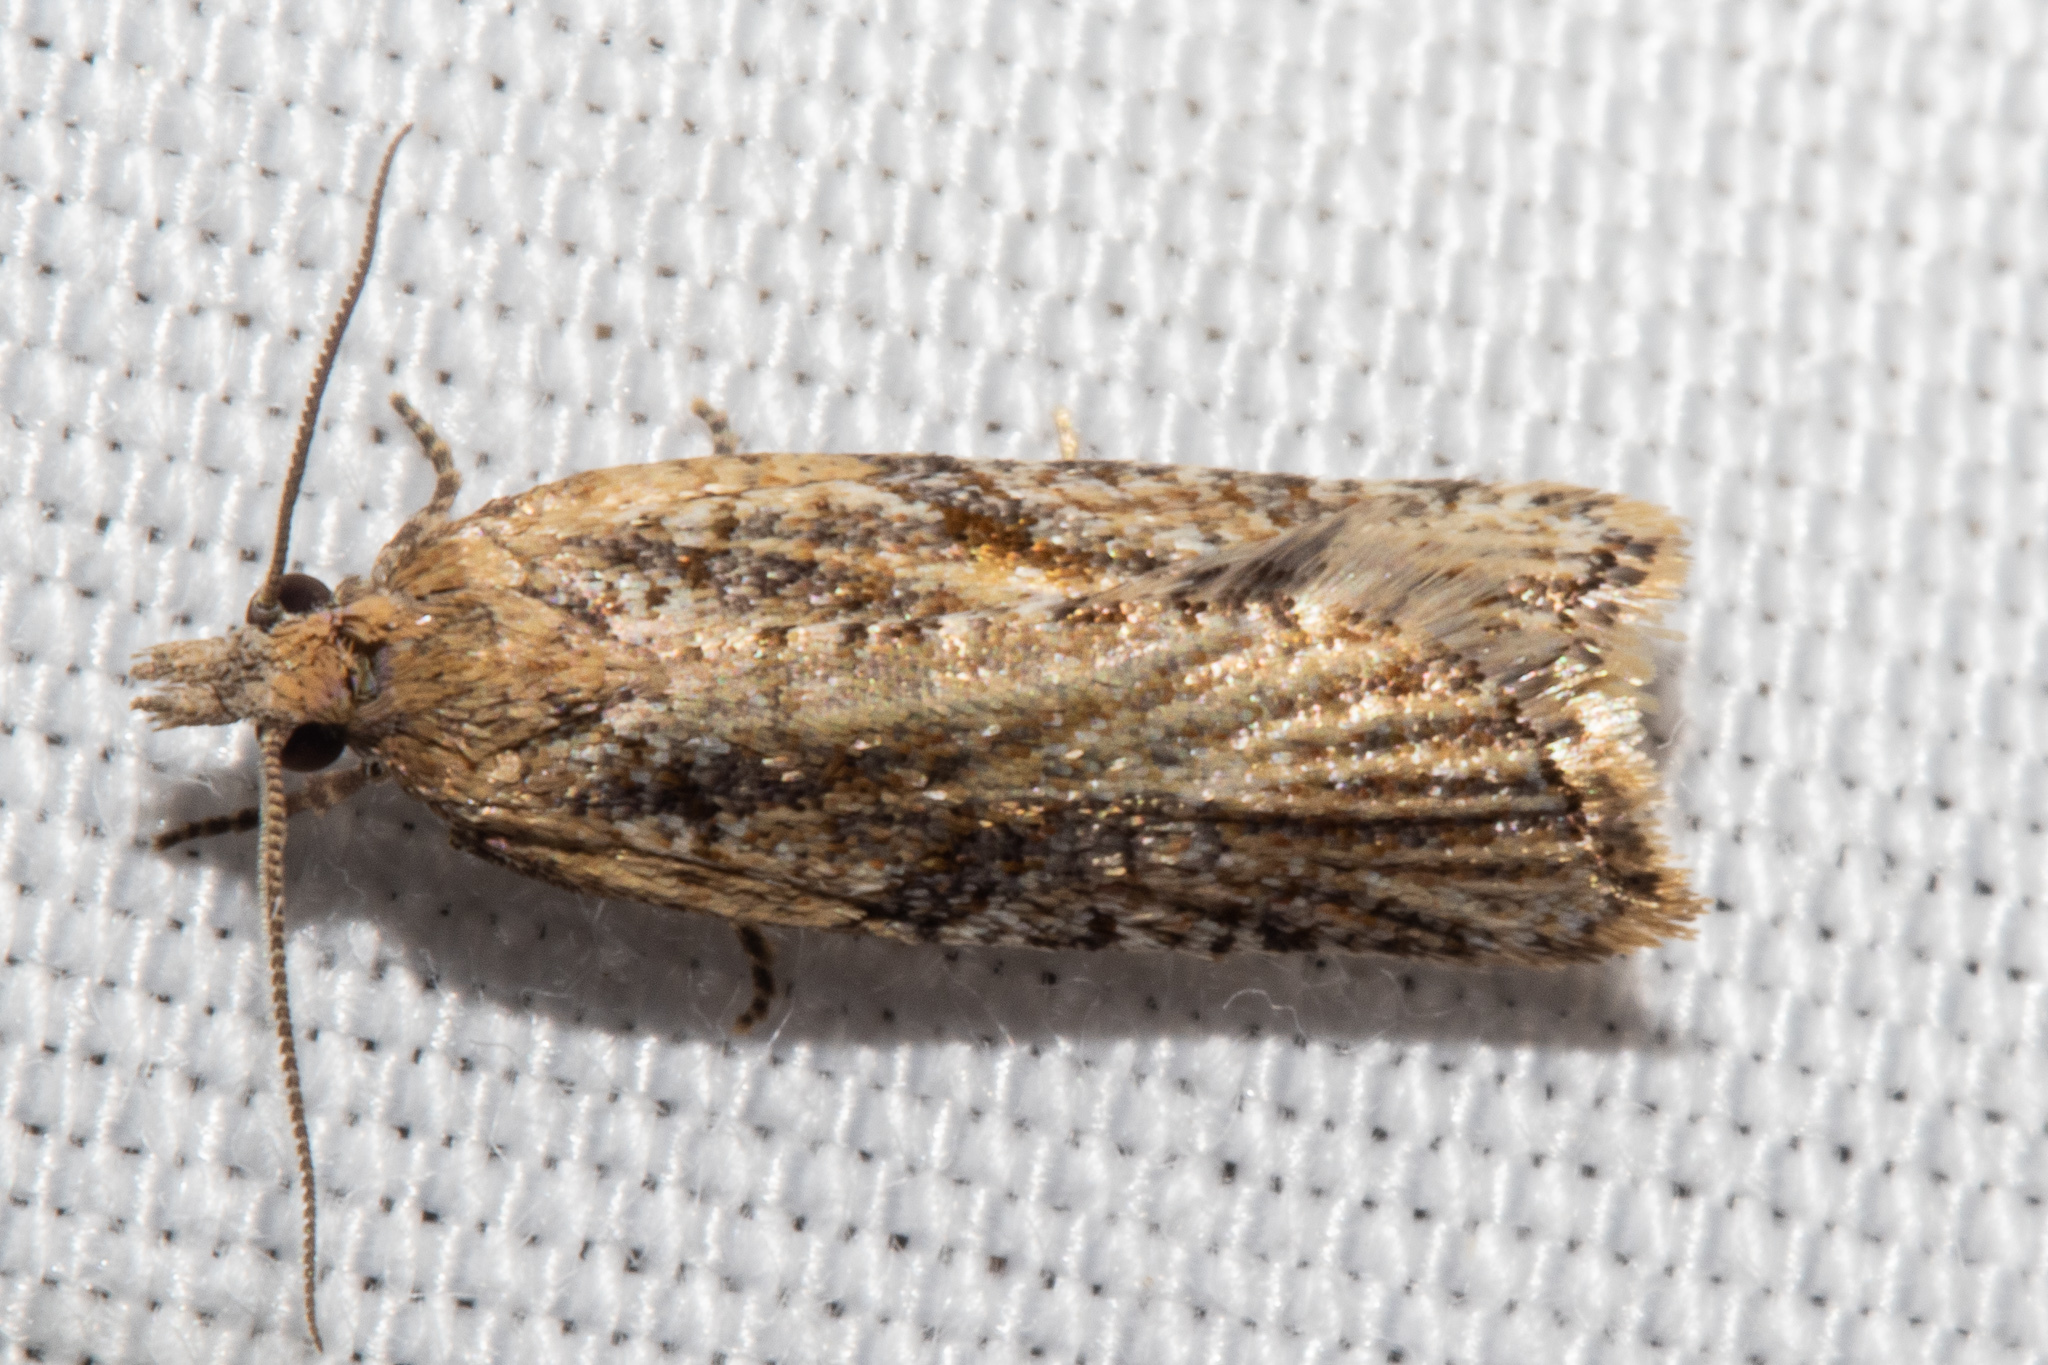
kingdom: Animalia
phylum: Arthropoda
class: Insecta
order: Lepidoptera
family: Tortricidae
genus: Capua
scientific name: Capua semiferana
